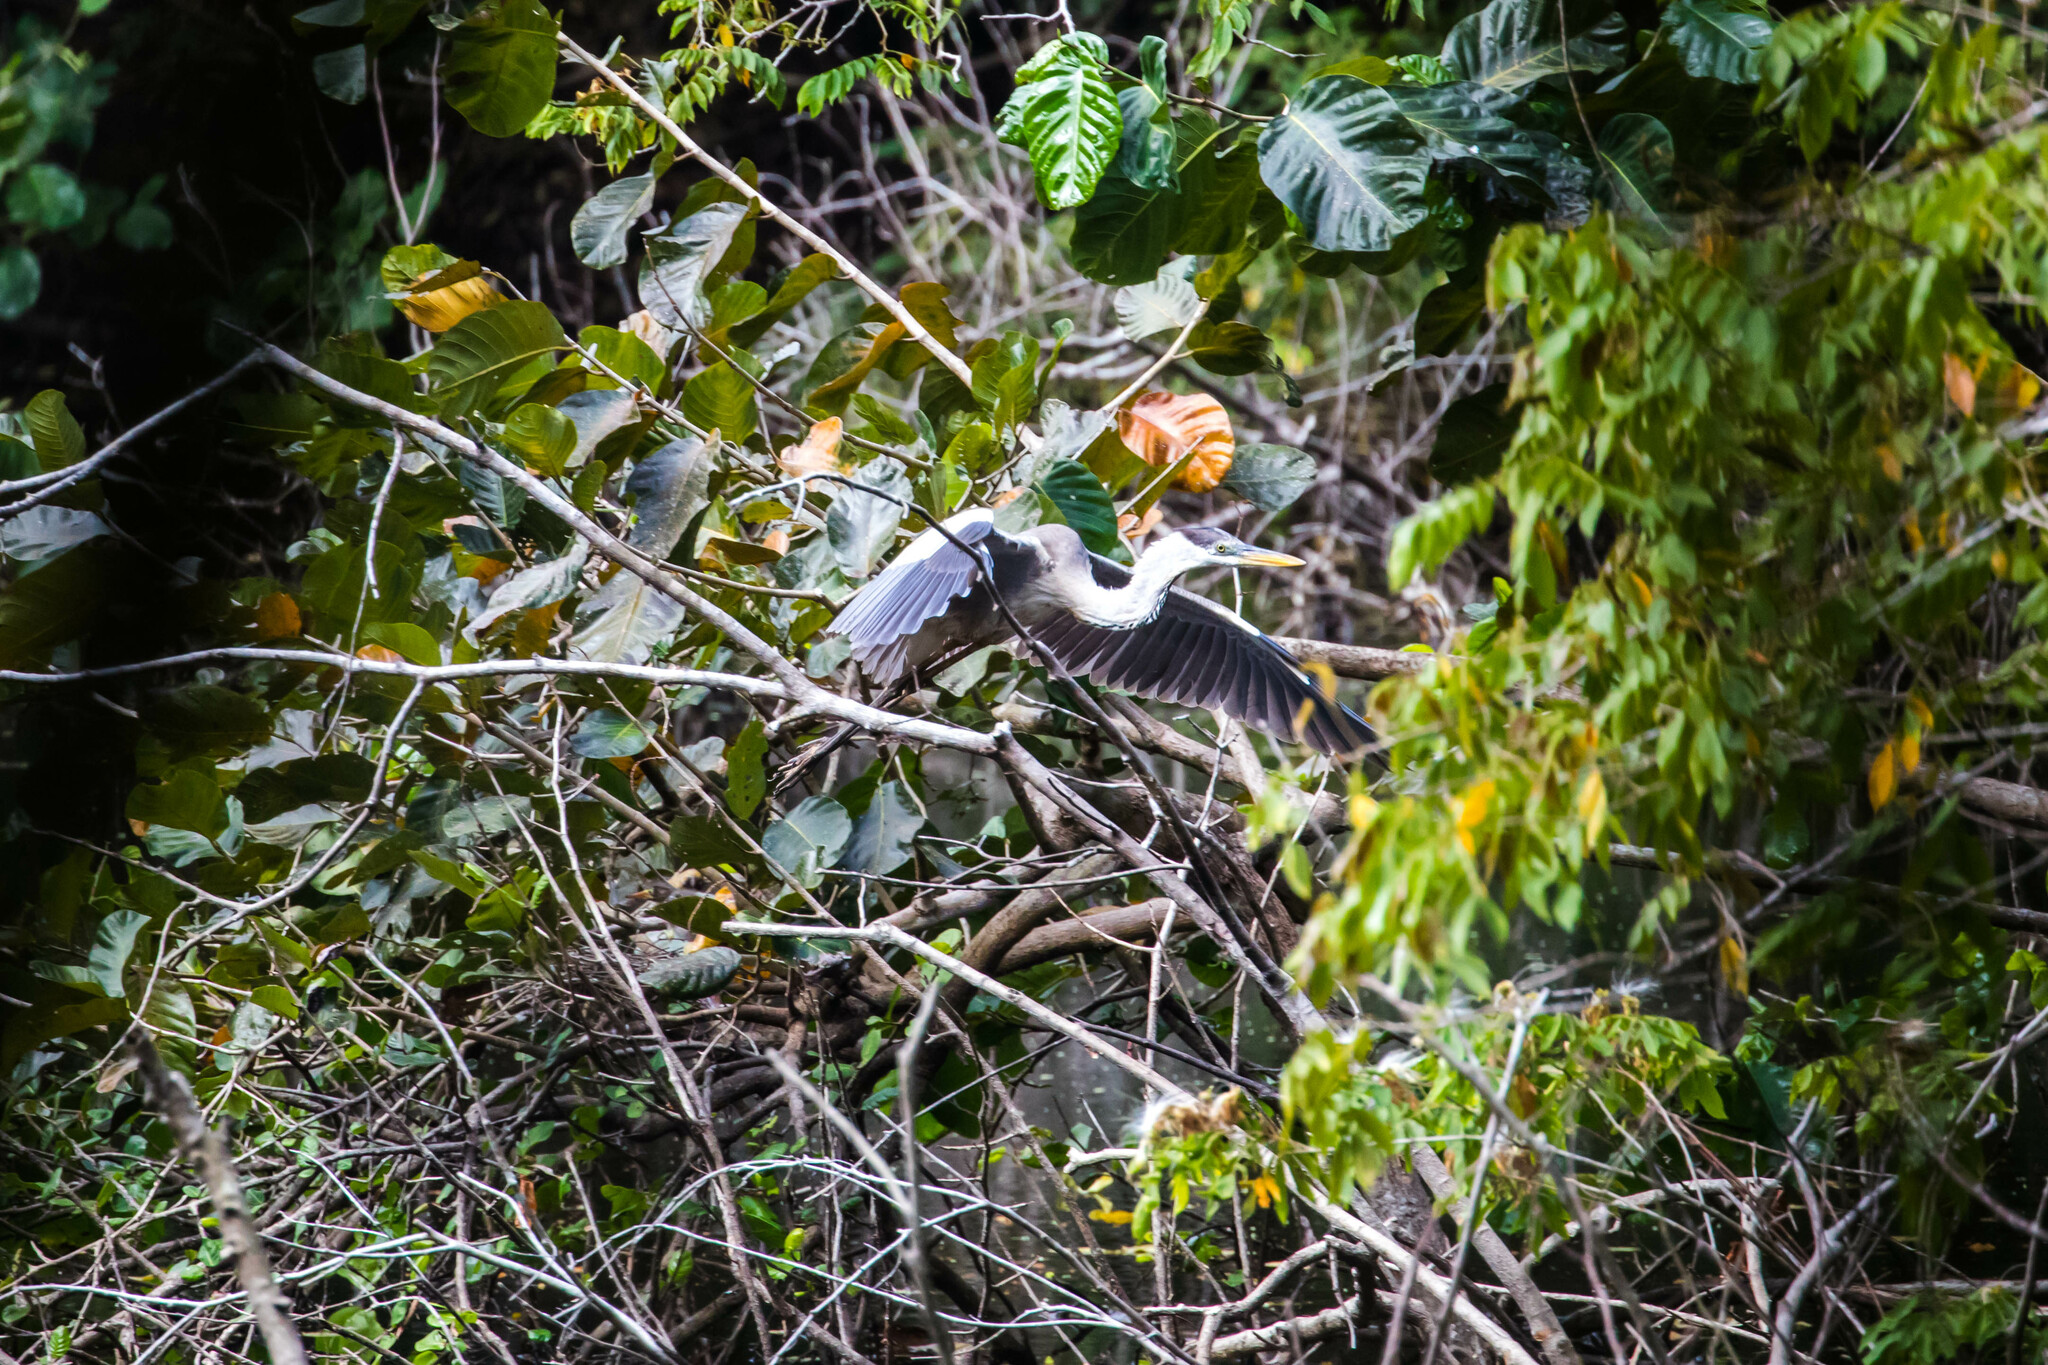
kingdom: Animalia
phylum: Chordata
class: Aves
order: Pelecaniformes
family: Ardeidae
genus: Ardea
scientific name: Ardea cocoi
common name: Cocoi heron
